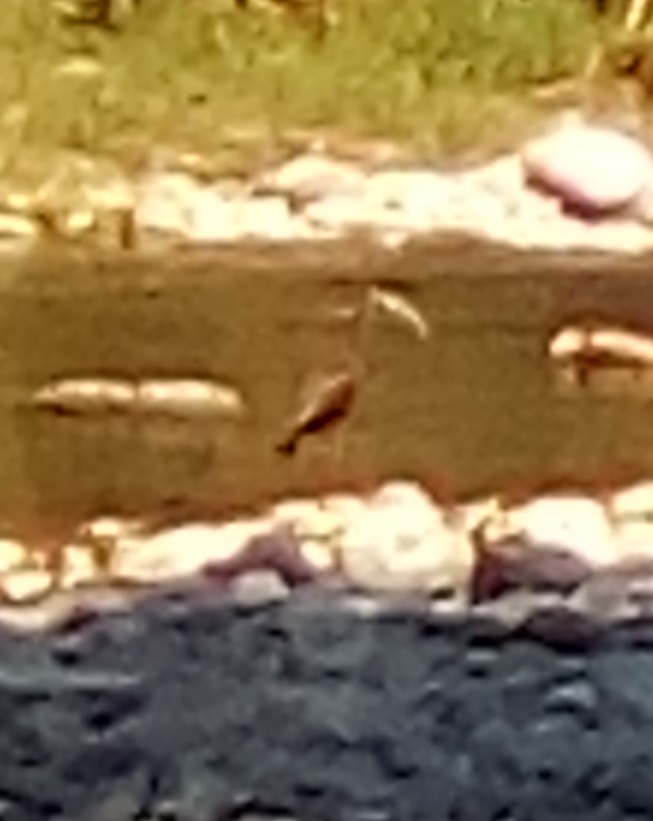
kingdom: Animalia
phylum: Chordata
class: Aves
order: Pelecaniformes
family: Threskiornithidae
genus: Plegadis
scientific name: Plegadis chihi
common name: White-faced ibis
